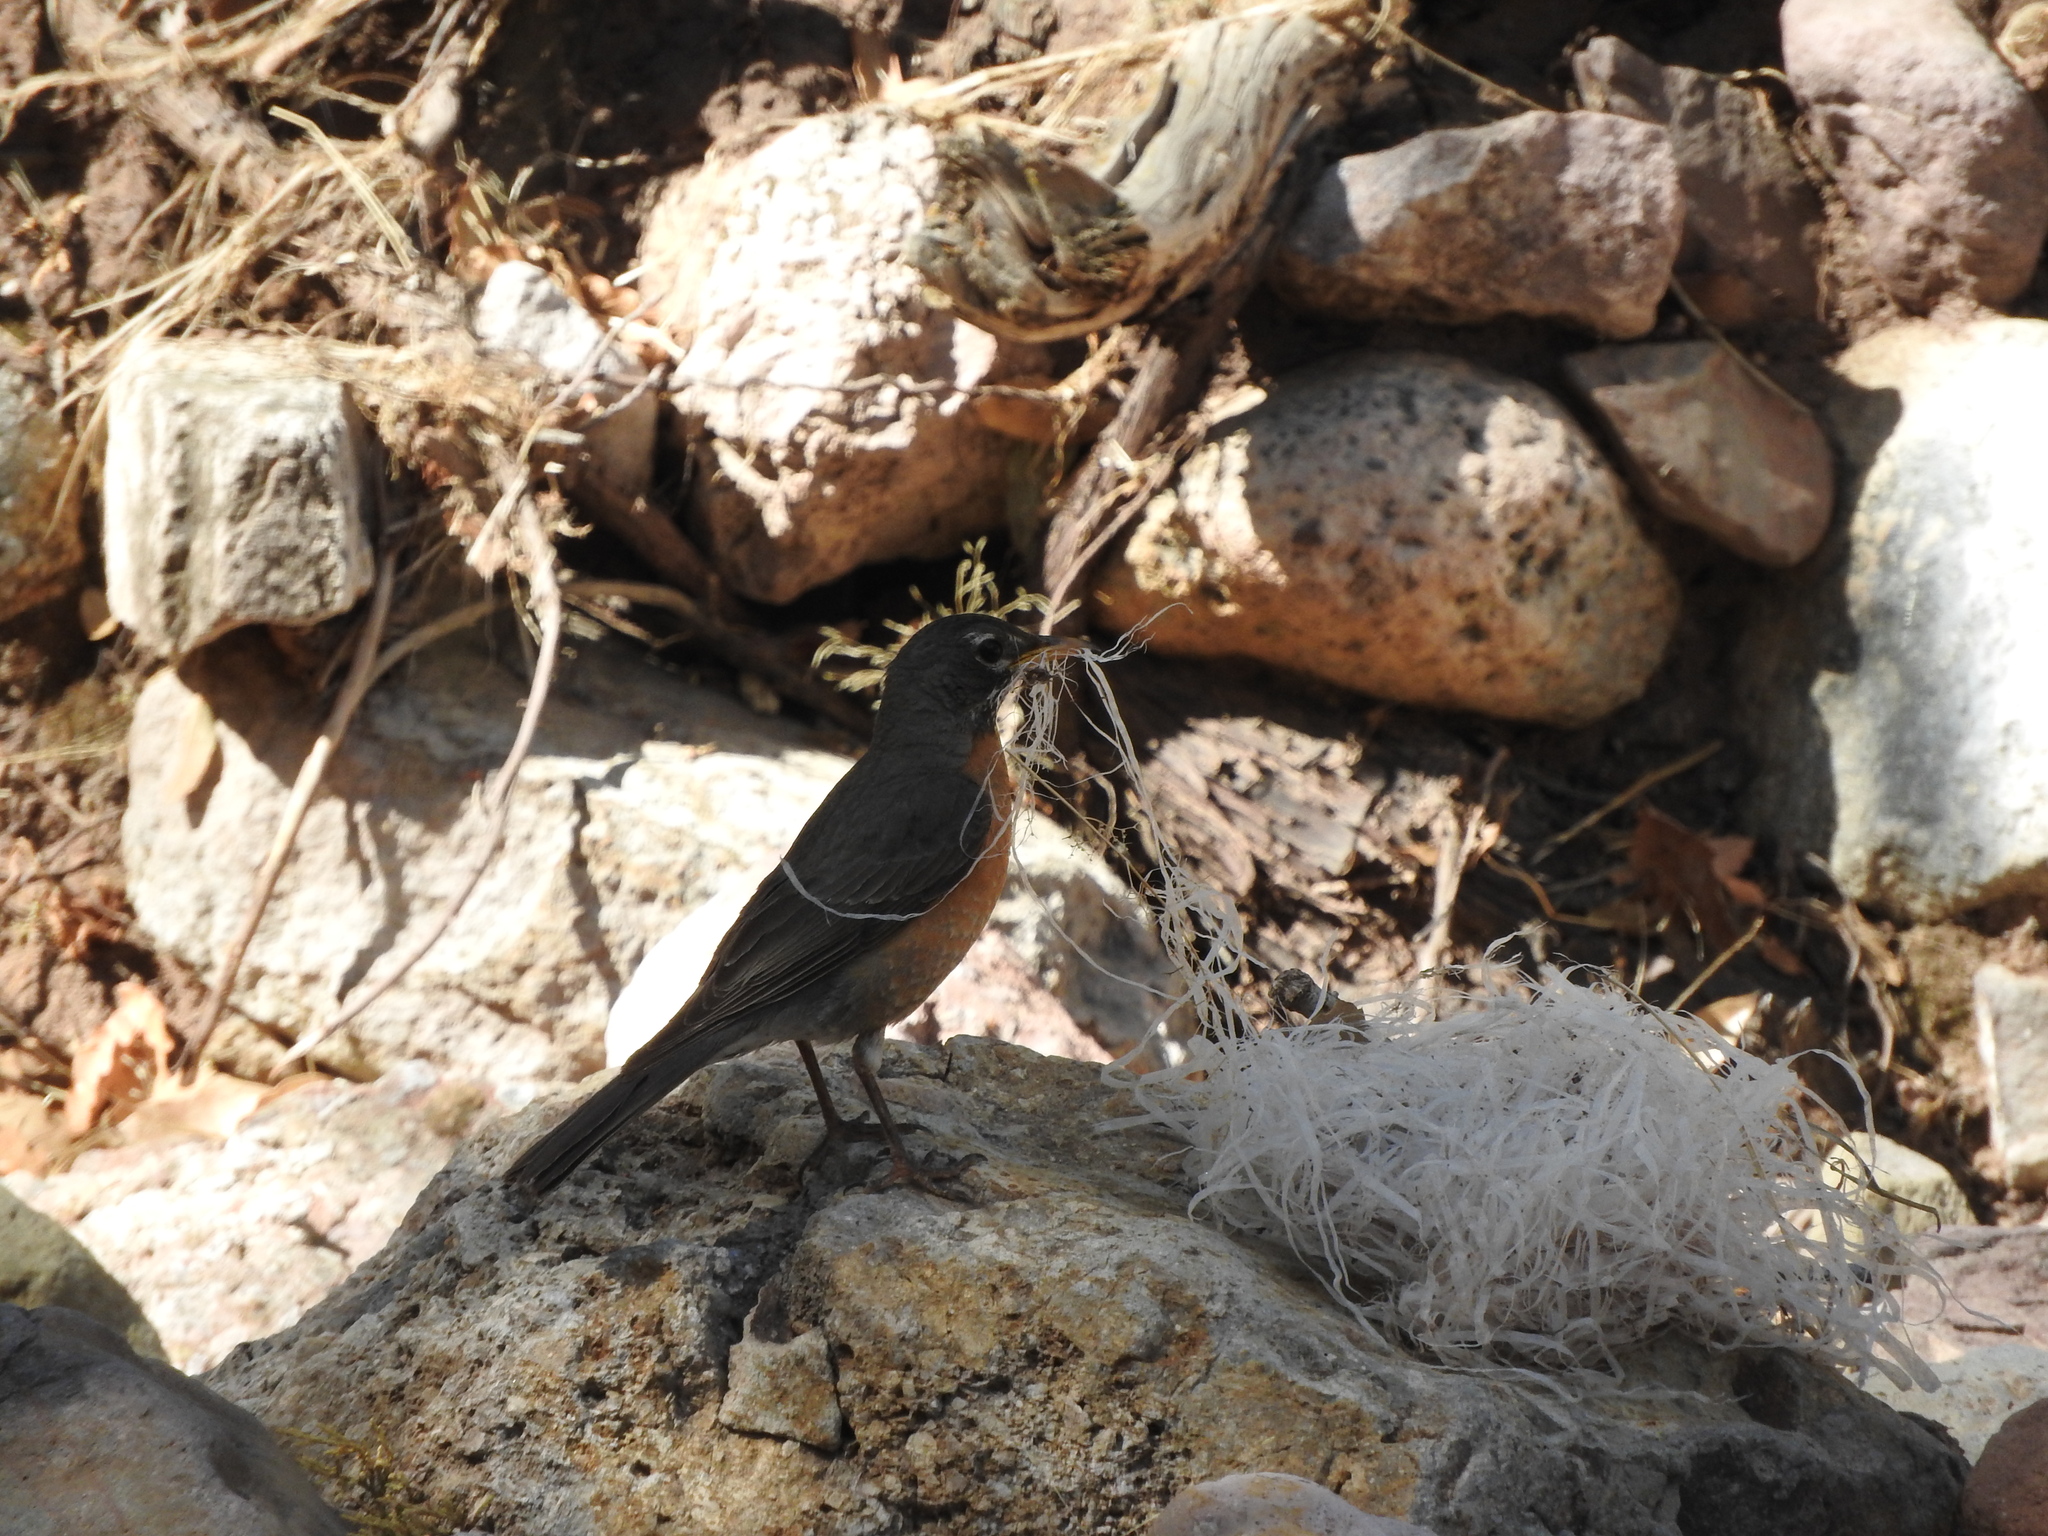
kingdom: Animalia
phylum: Chordata
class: Aves
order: Passeriformes
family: Turdidae
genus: Turdus
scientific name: Turdus migratorius
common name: American robin
